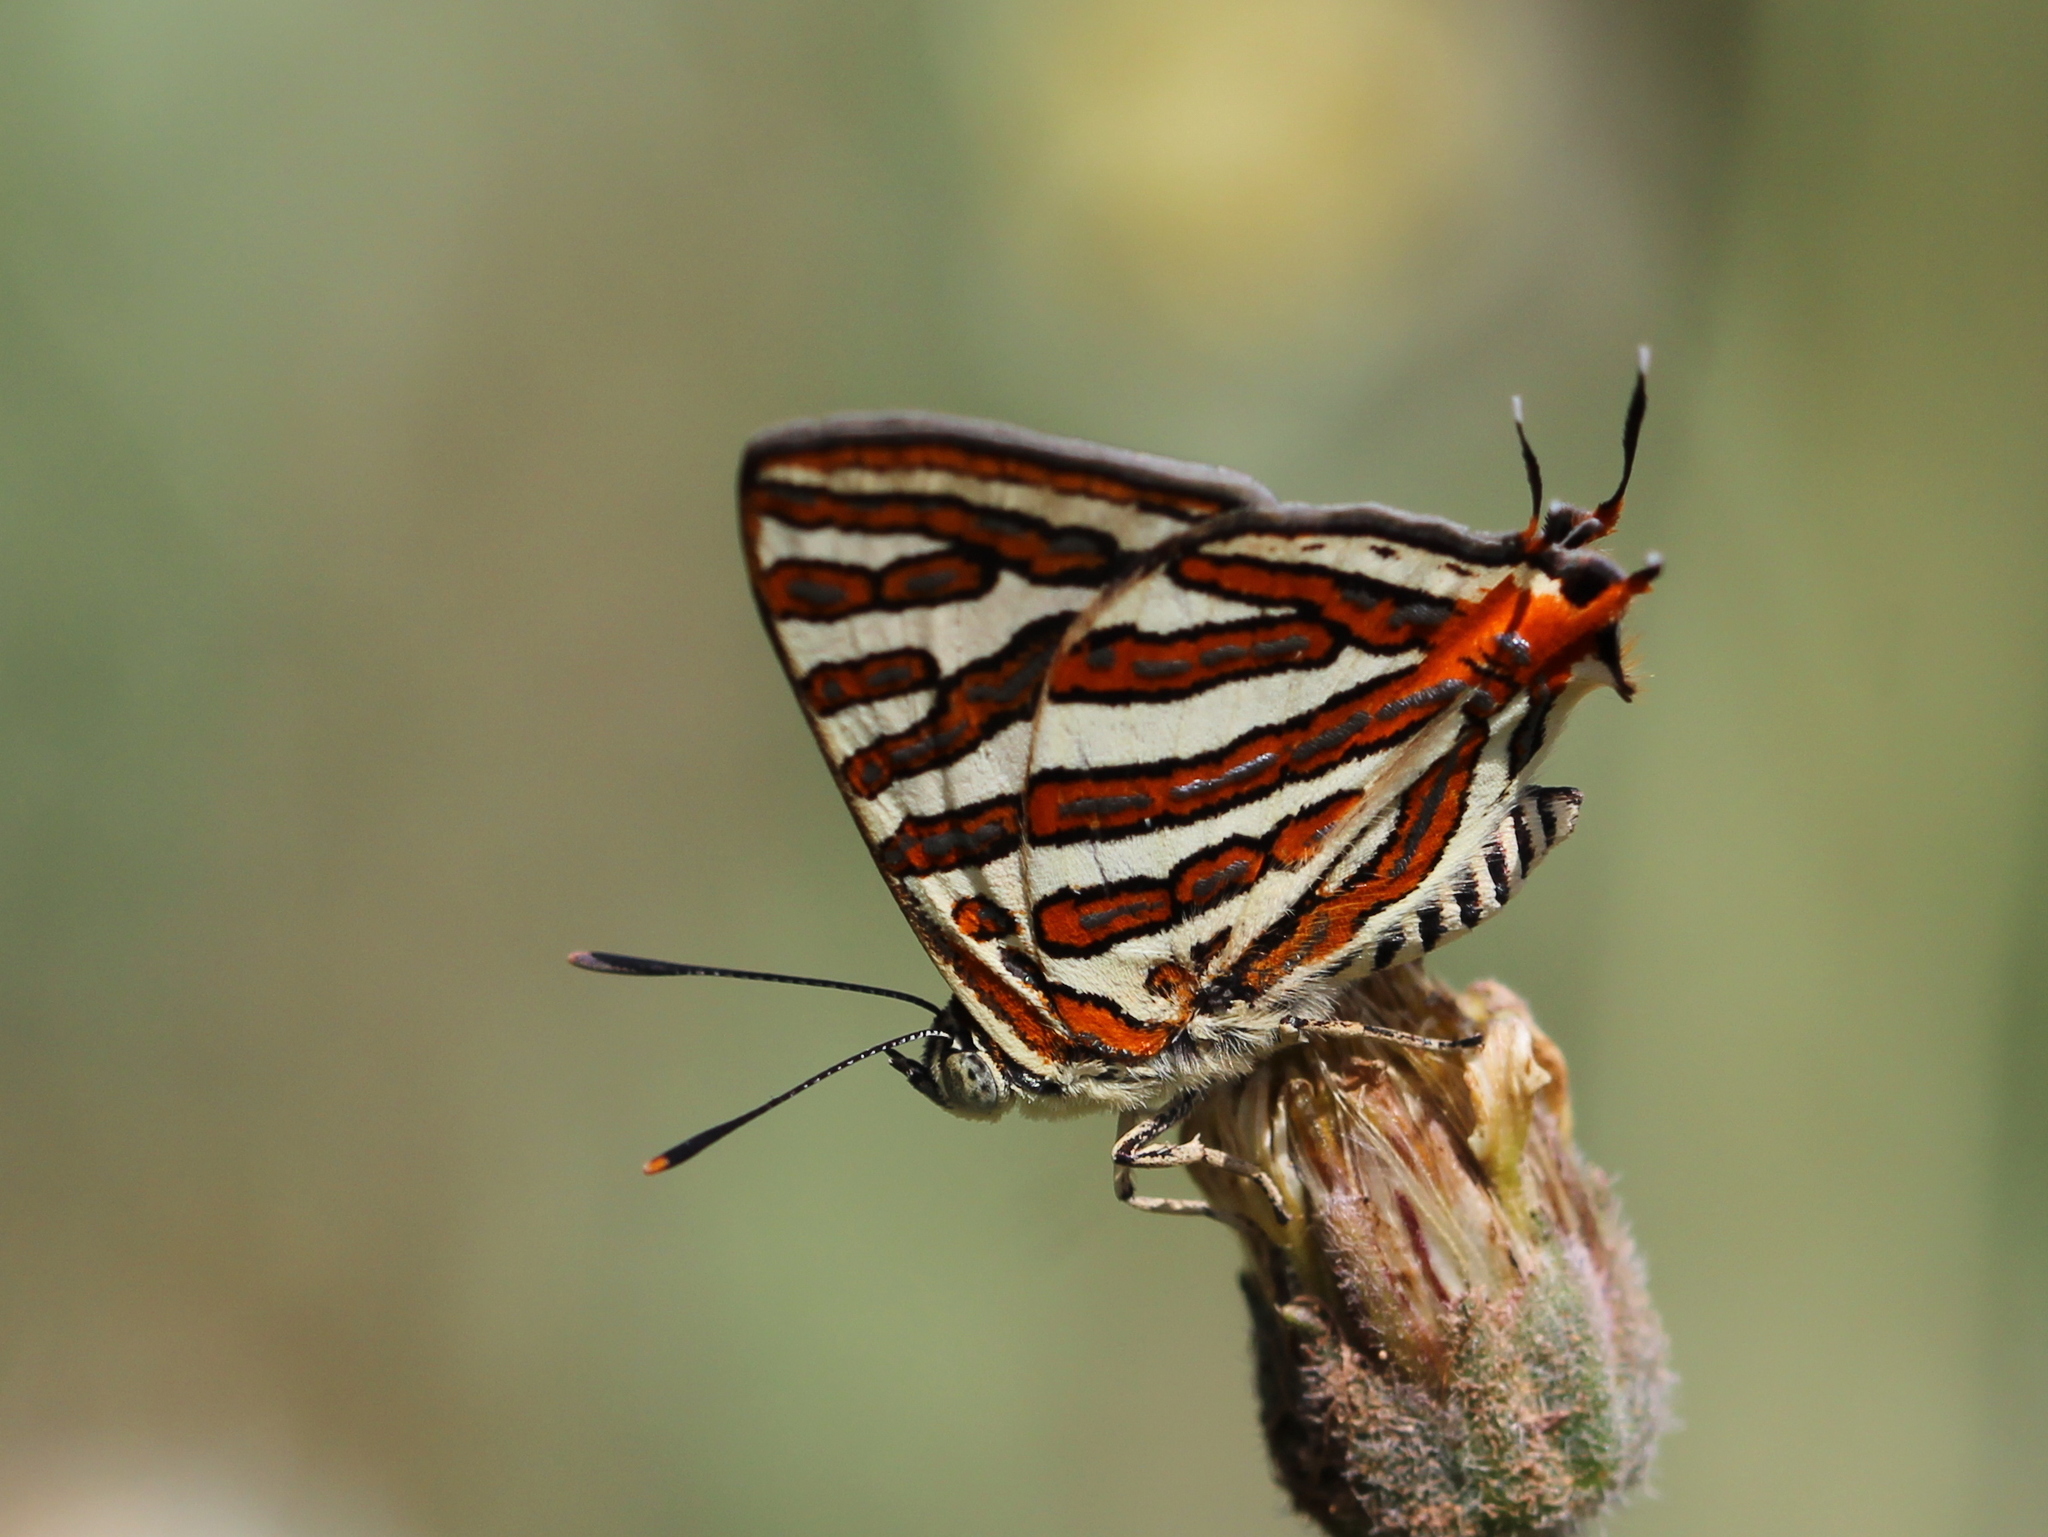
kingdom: Animalia
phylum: Arthropoda
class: Insecta
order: Lepidoptera
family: Lycaenidae
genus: Cigaritis
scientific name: Cigaritis vulcanus
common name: Common silverline
